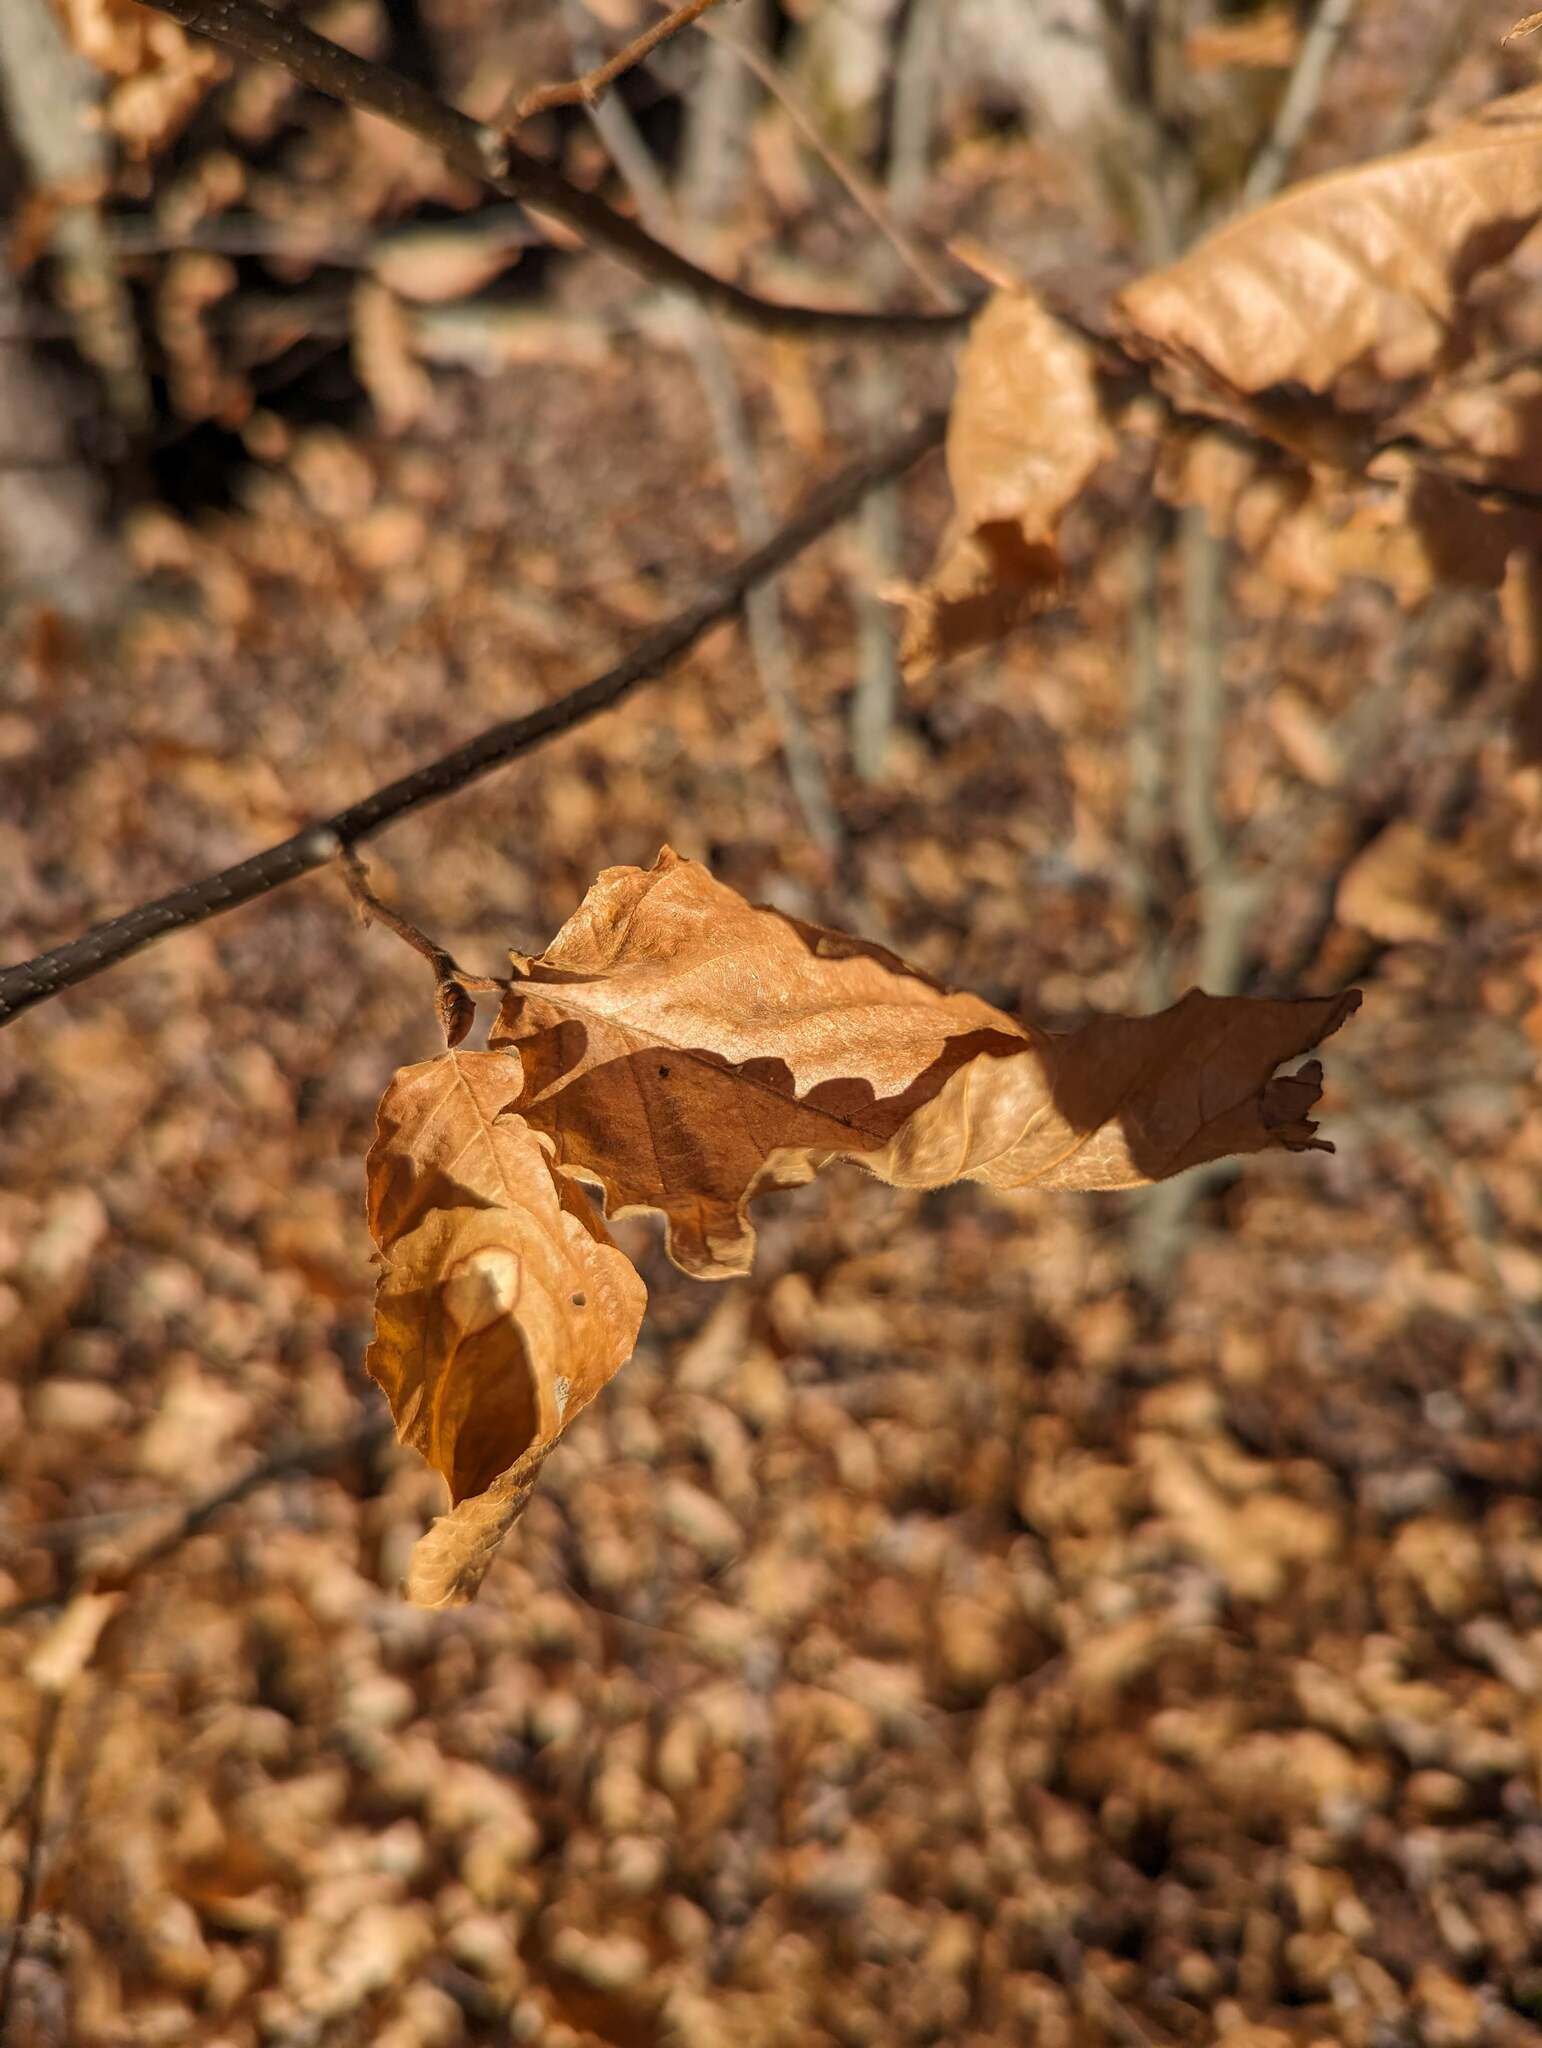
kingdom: Plantae
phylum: Tracheophyta
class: Magnoliopsida
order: Fagales
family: Fagaceae
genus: Fagus
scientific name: Fagus grandifolia
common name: American beech
